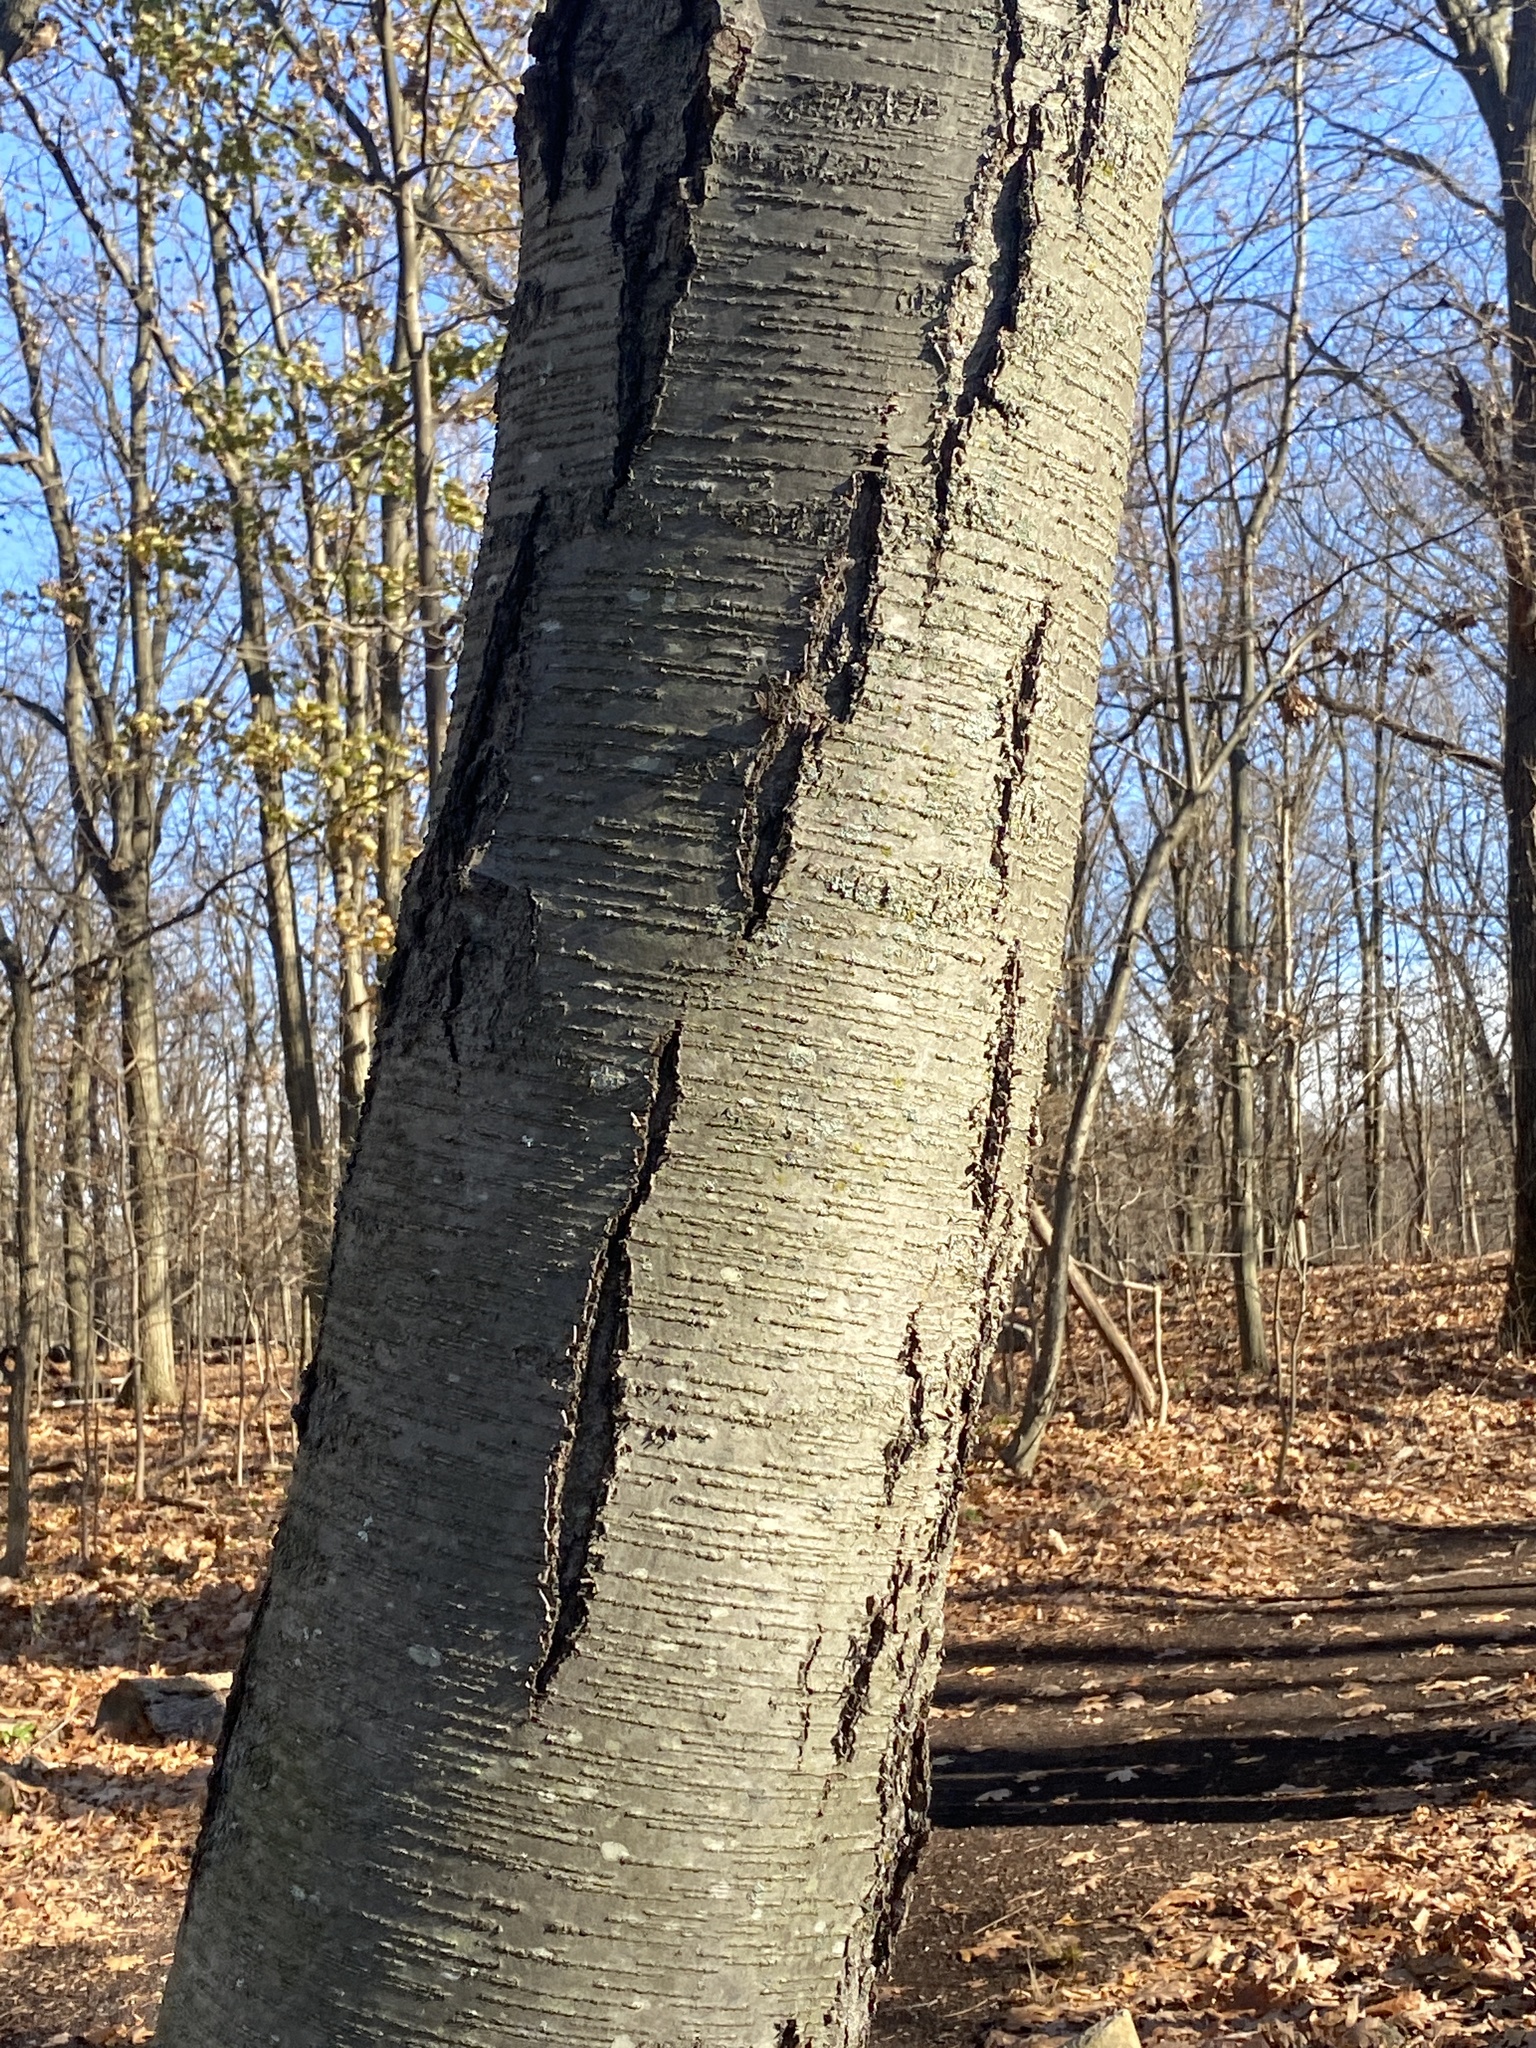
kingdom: Plantae
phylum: Tracheophyta
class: Magnoliopsida
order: Fagales
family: Betulaceae
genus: Betula
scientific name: Betula lenta
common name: Black birch
